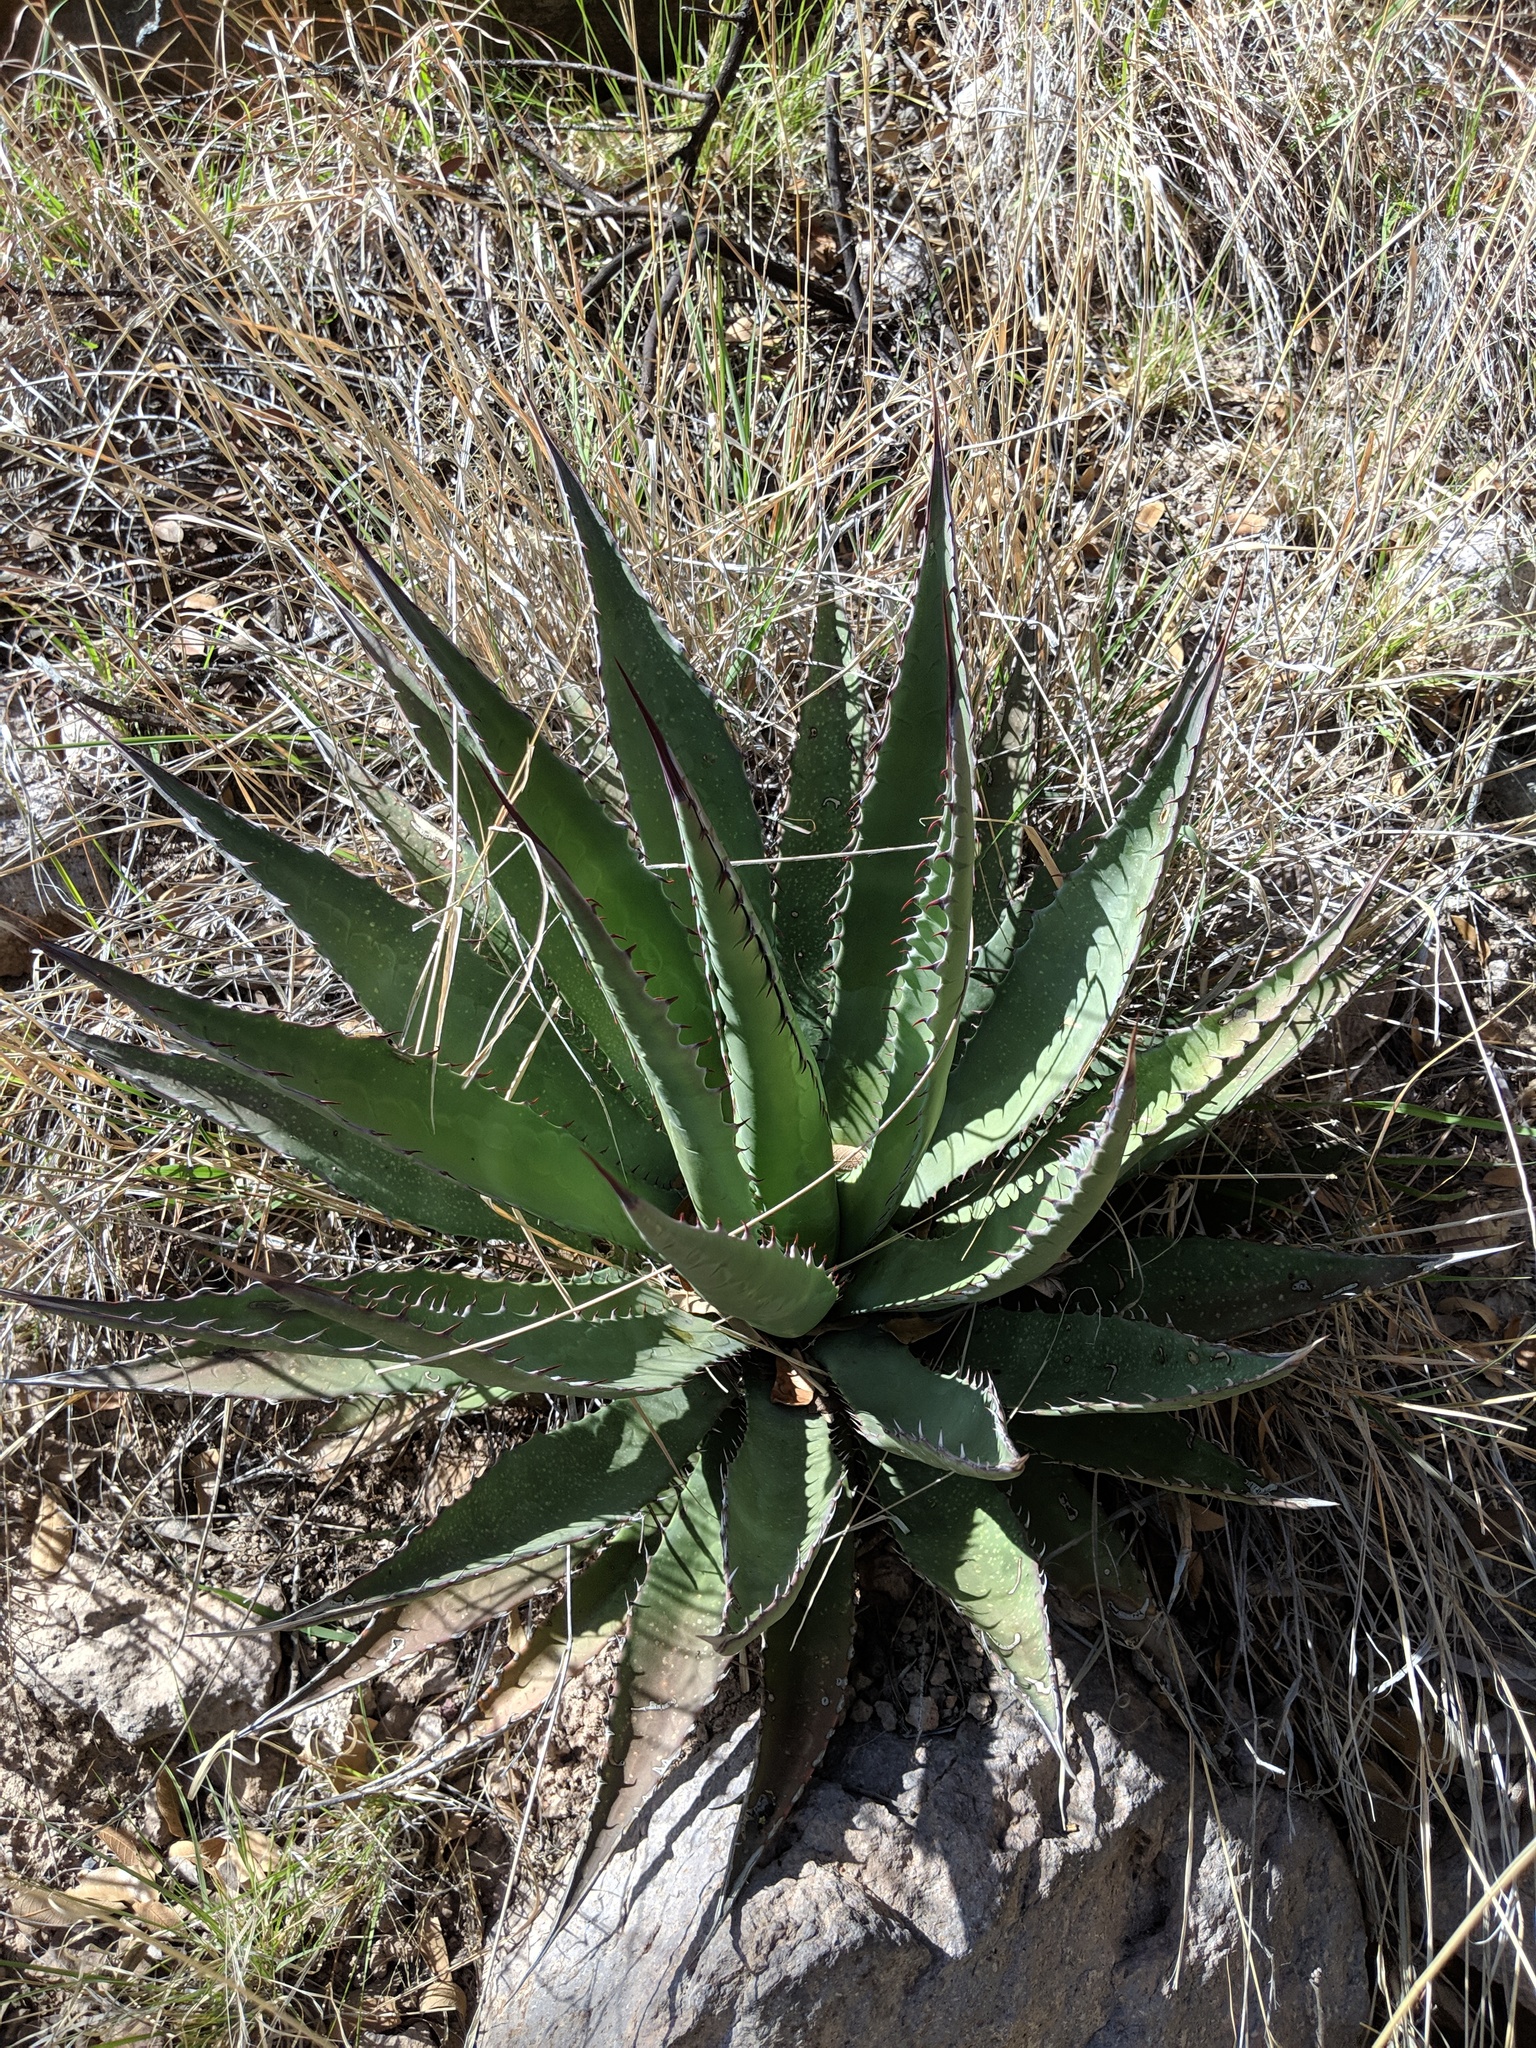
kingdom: Plantae
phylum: Tracheophyta
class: Liliopsida
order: Asparagales
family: Asparagaceae
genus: Agave
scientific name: Agave palmeri
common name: Palmer agave
